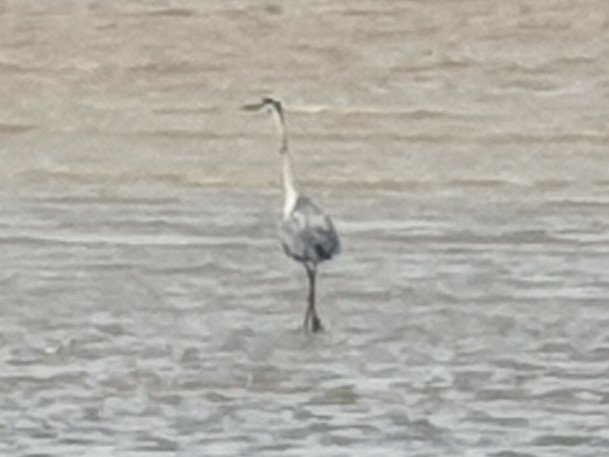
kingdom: Animalia
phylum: Chordata
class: Aves
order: Pelecaniformes
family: Ardeidae
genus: Ardea
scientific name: Ardea cinerea
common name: Grey heron
